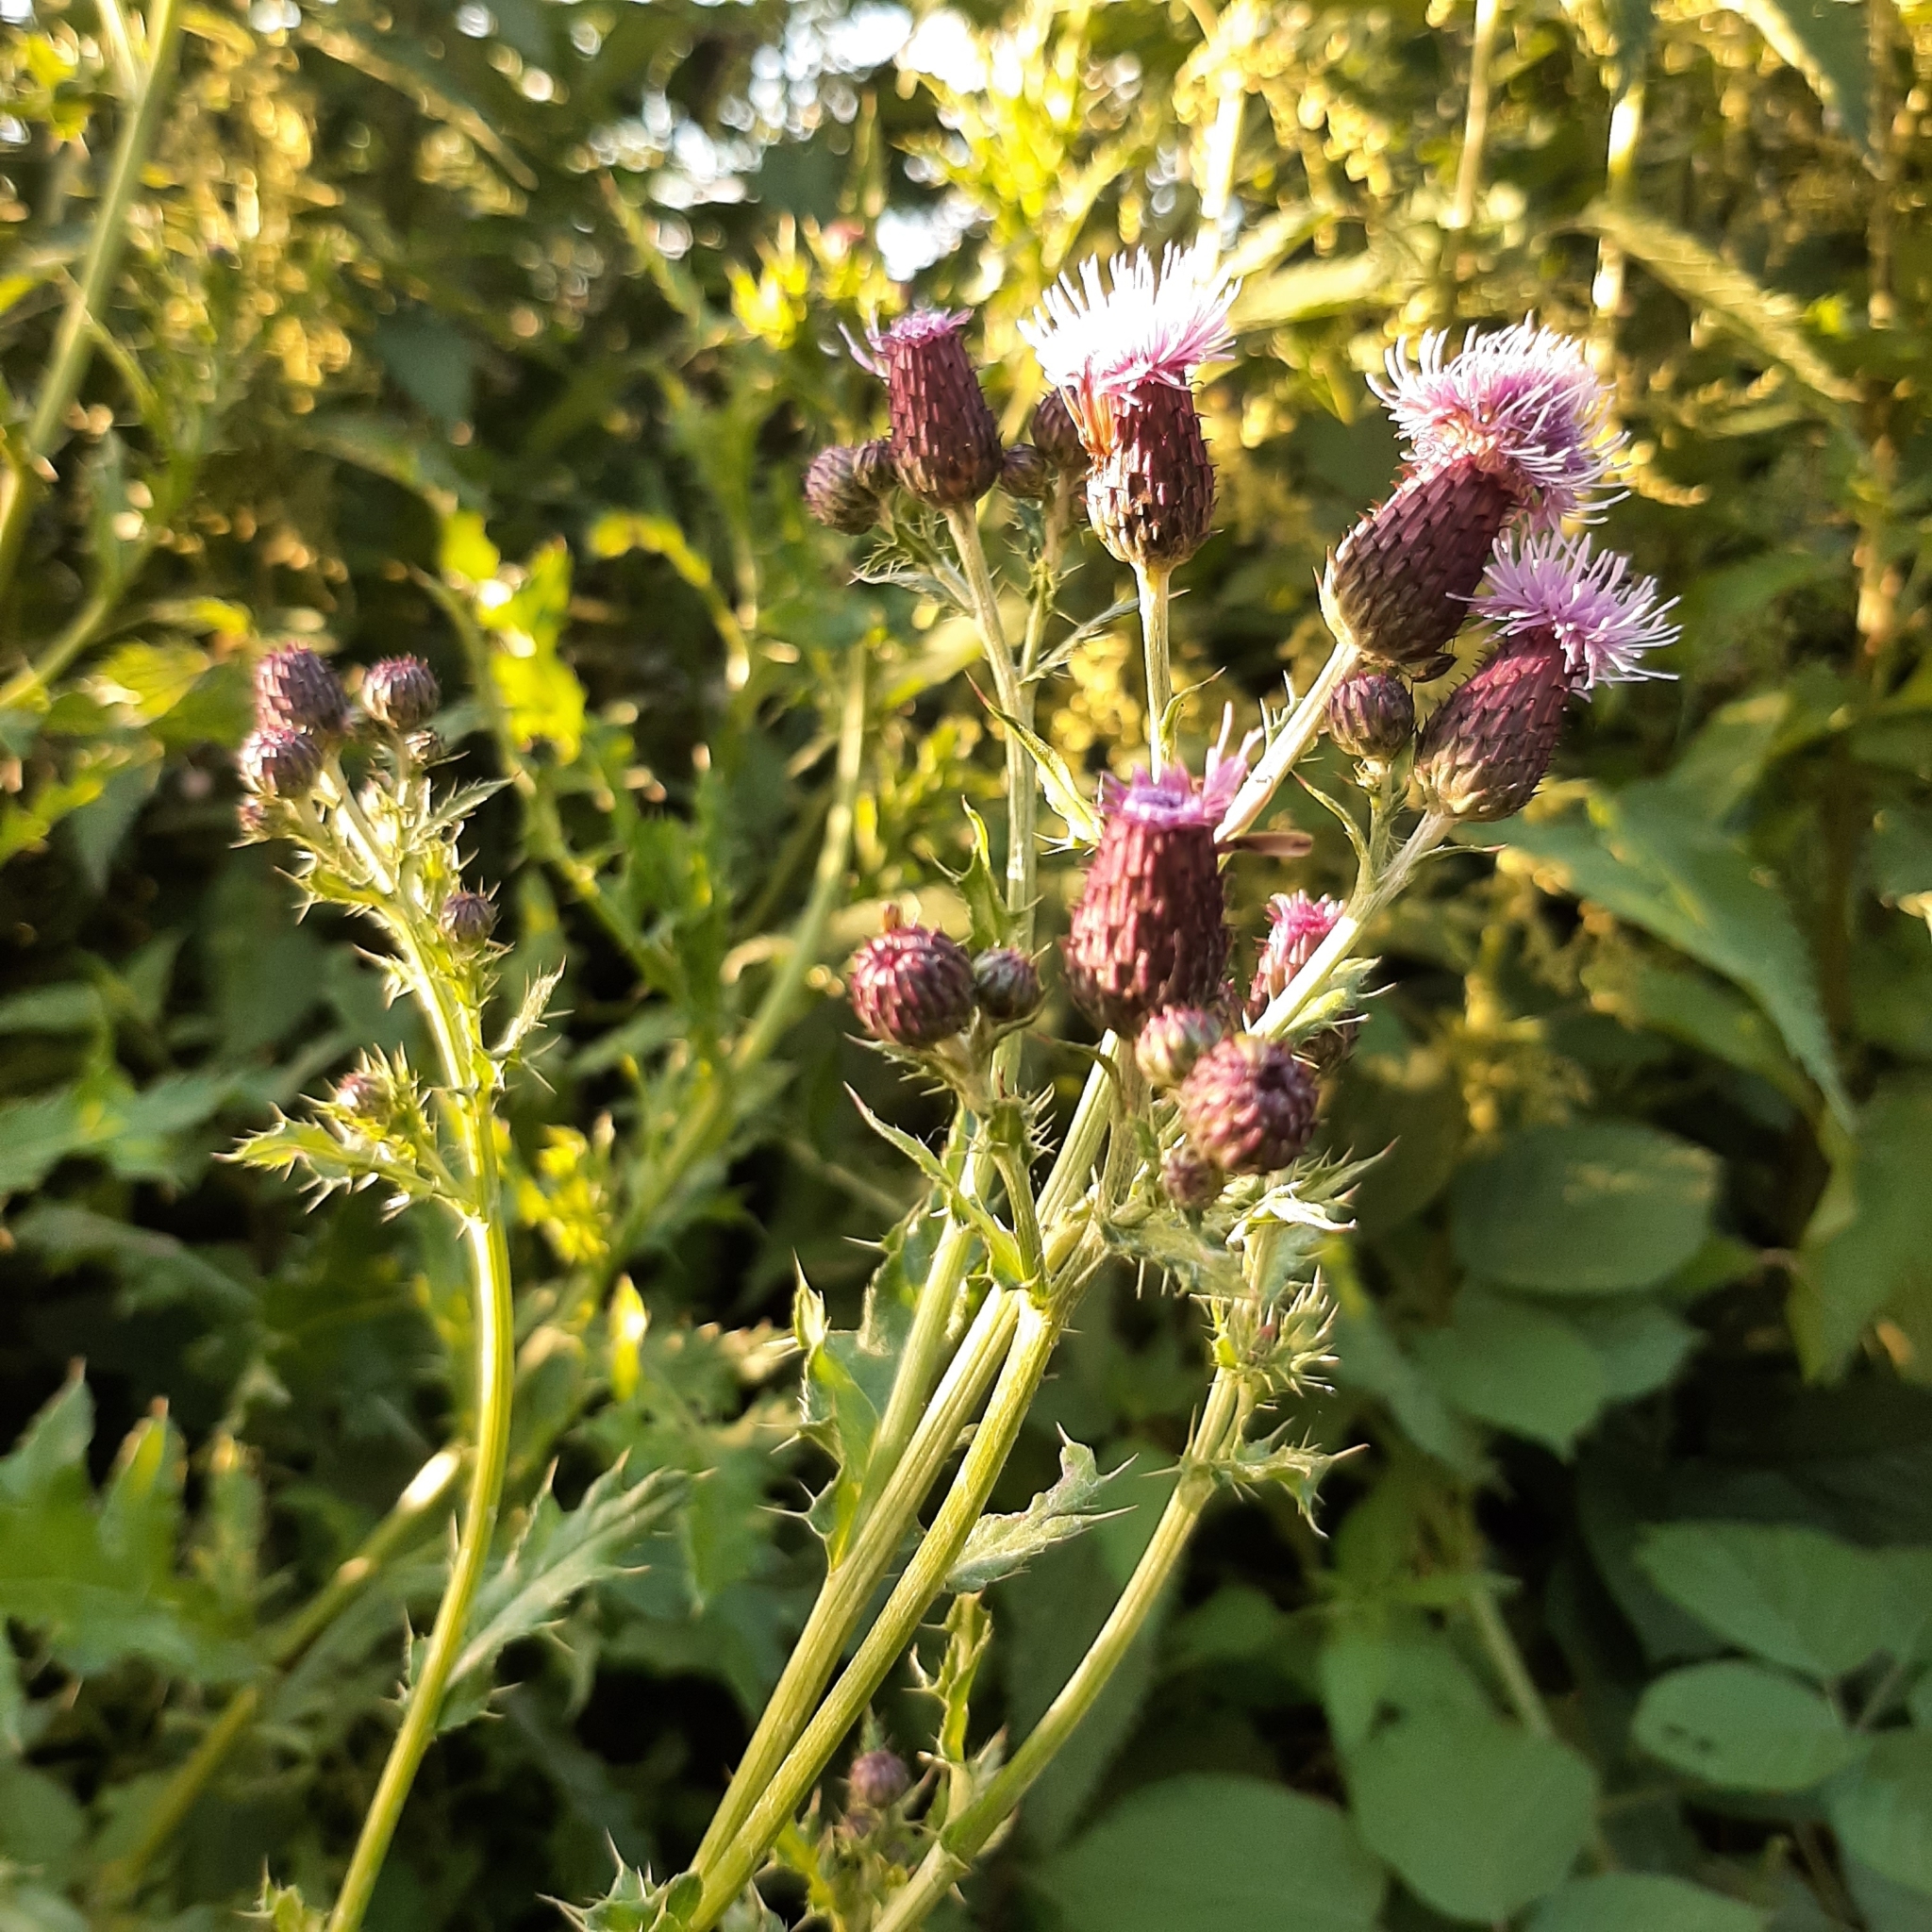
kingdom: Plantae
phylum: Tracheophyta
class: Magnoliopsida
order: Asterales
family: Asteraceae
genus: Cirsium
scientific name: Cirsium arvense
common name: Creeping thistle
